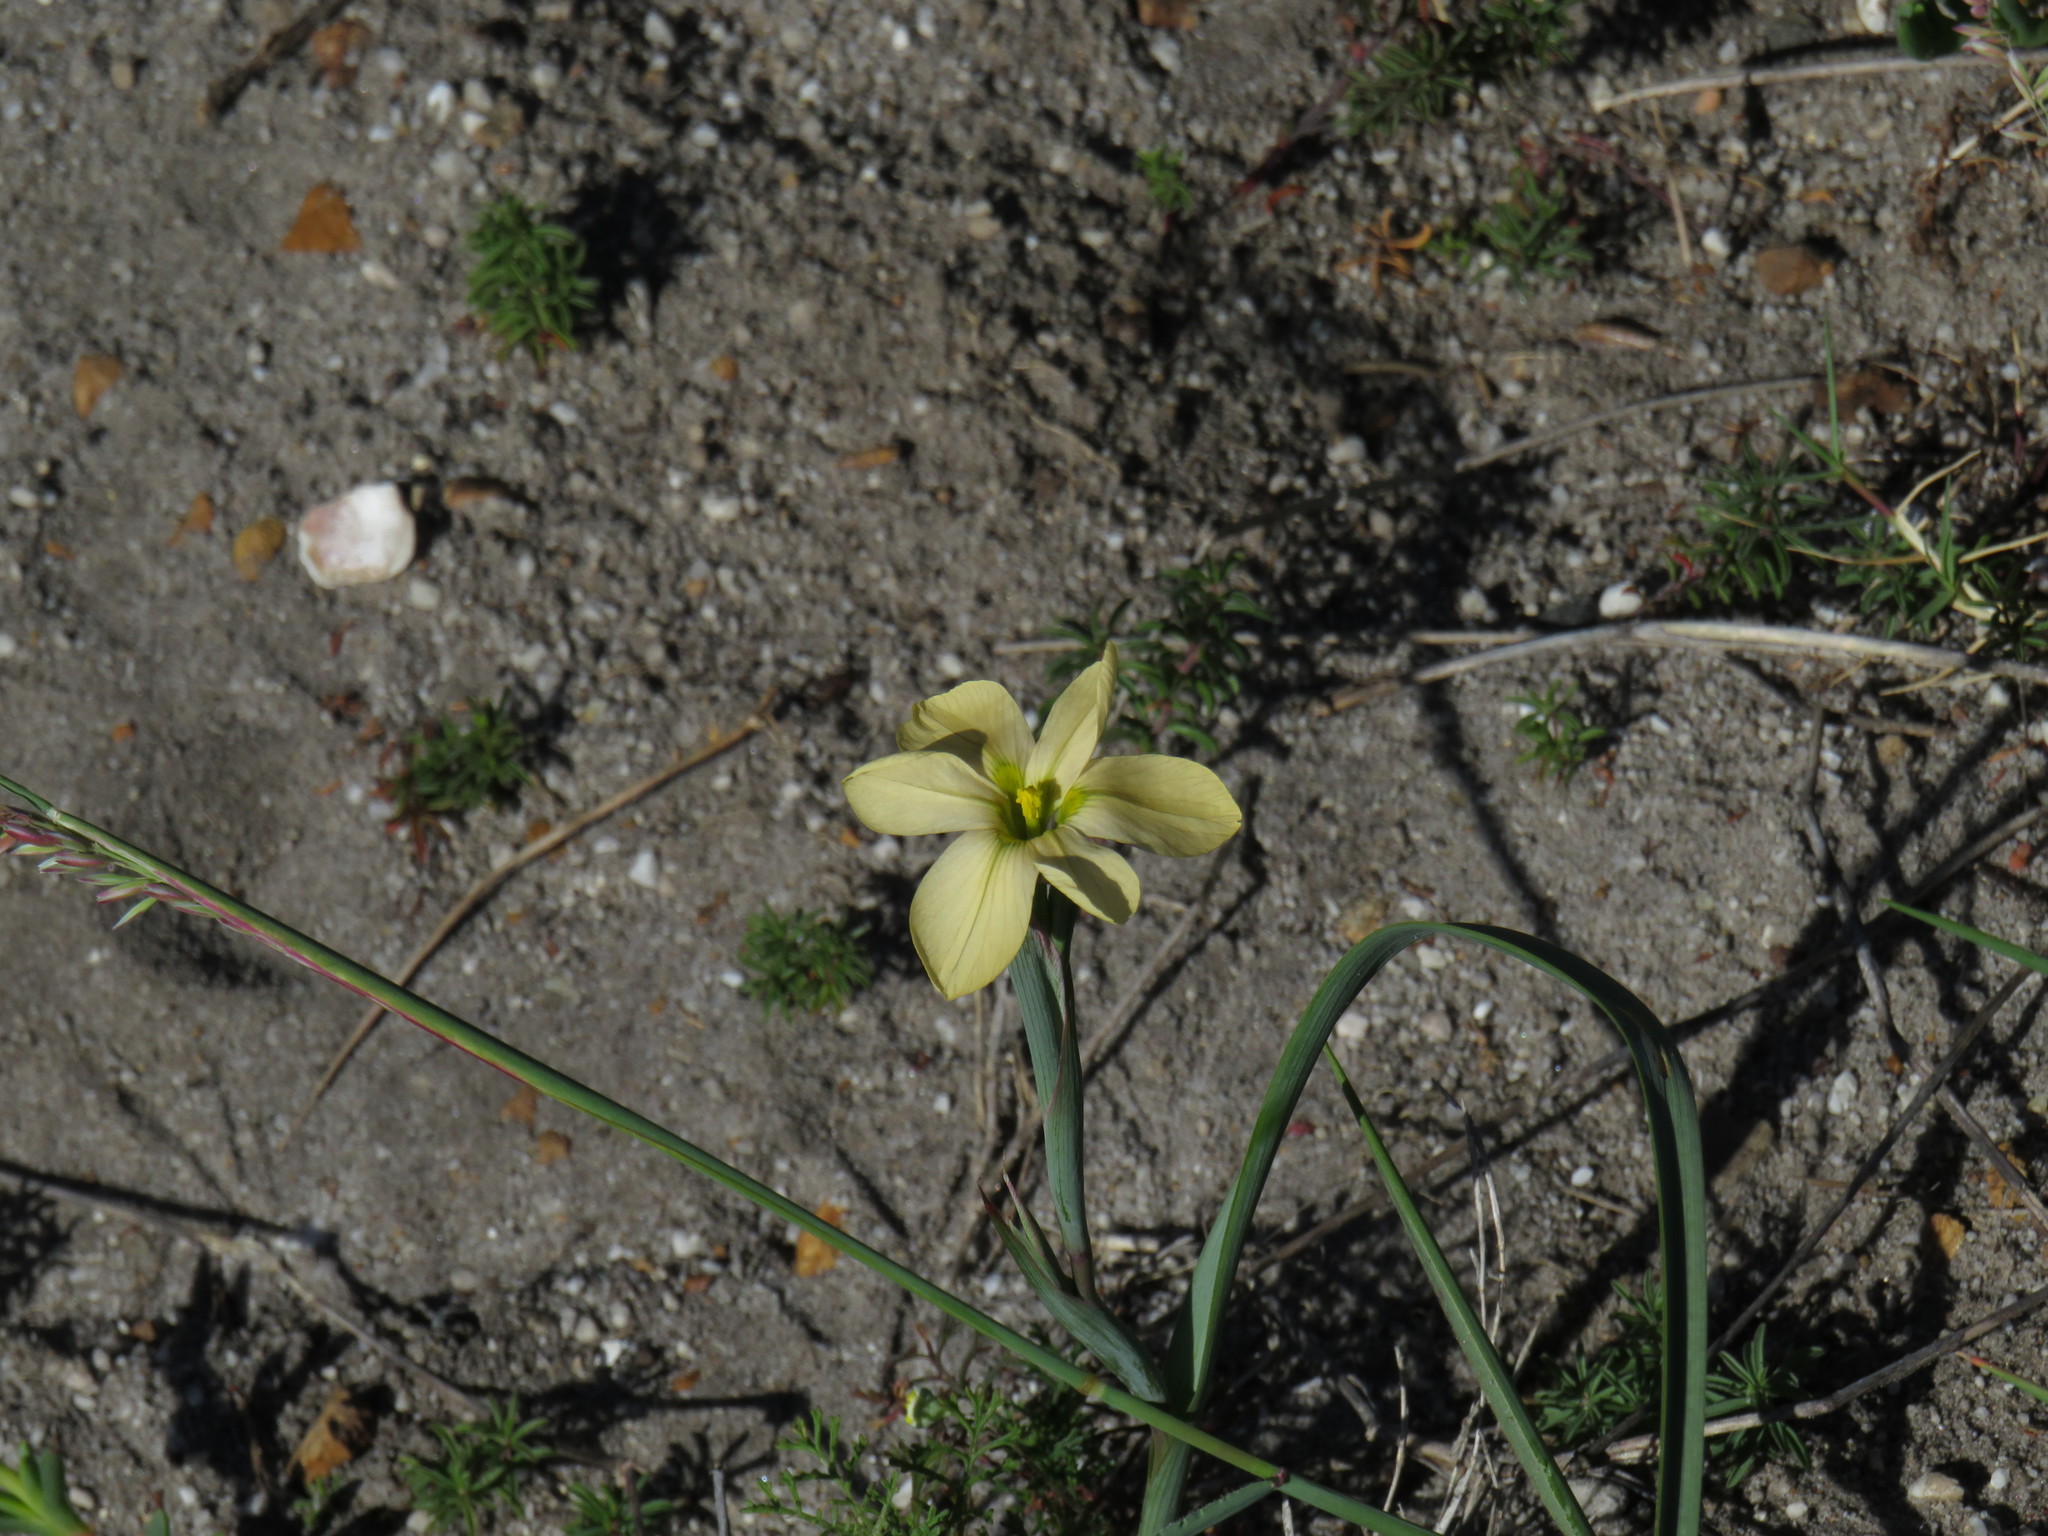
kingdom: Plantae
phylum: Tracheophyta
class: Liliopsida
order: Asparagales
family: Iridaceae
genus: Moraea
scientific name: Moraea collina
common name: Cape-tulip
